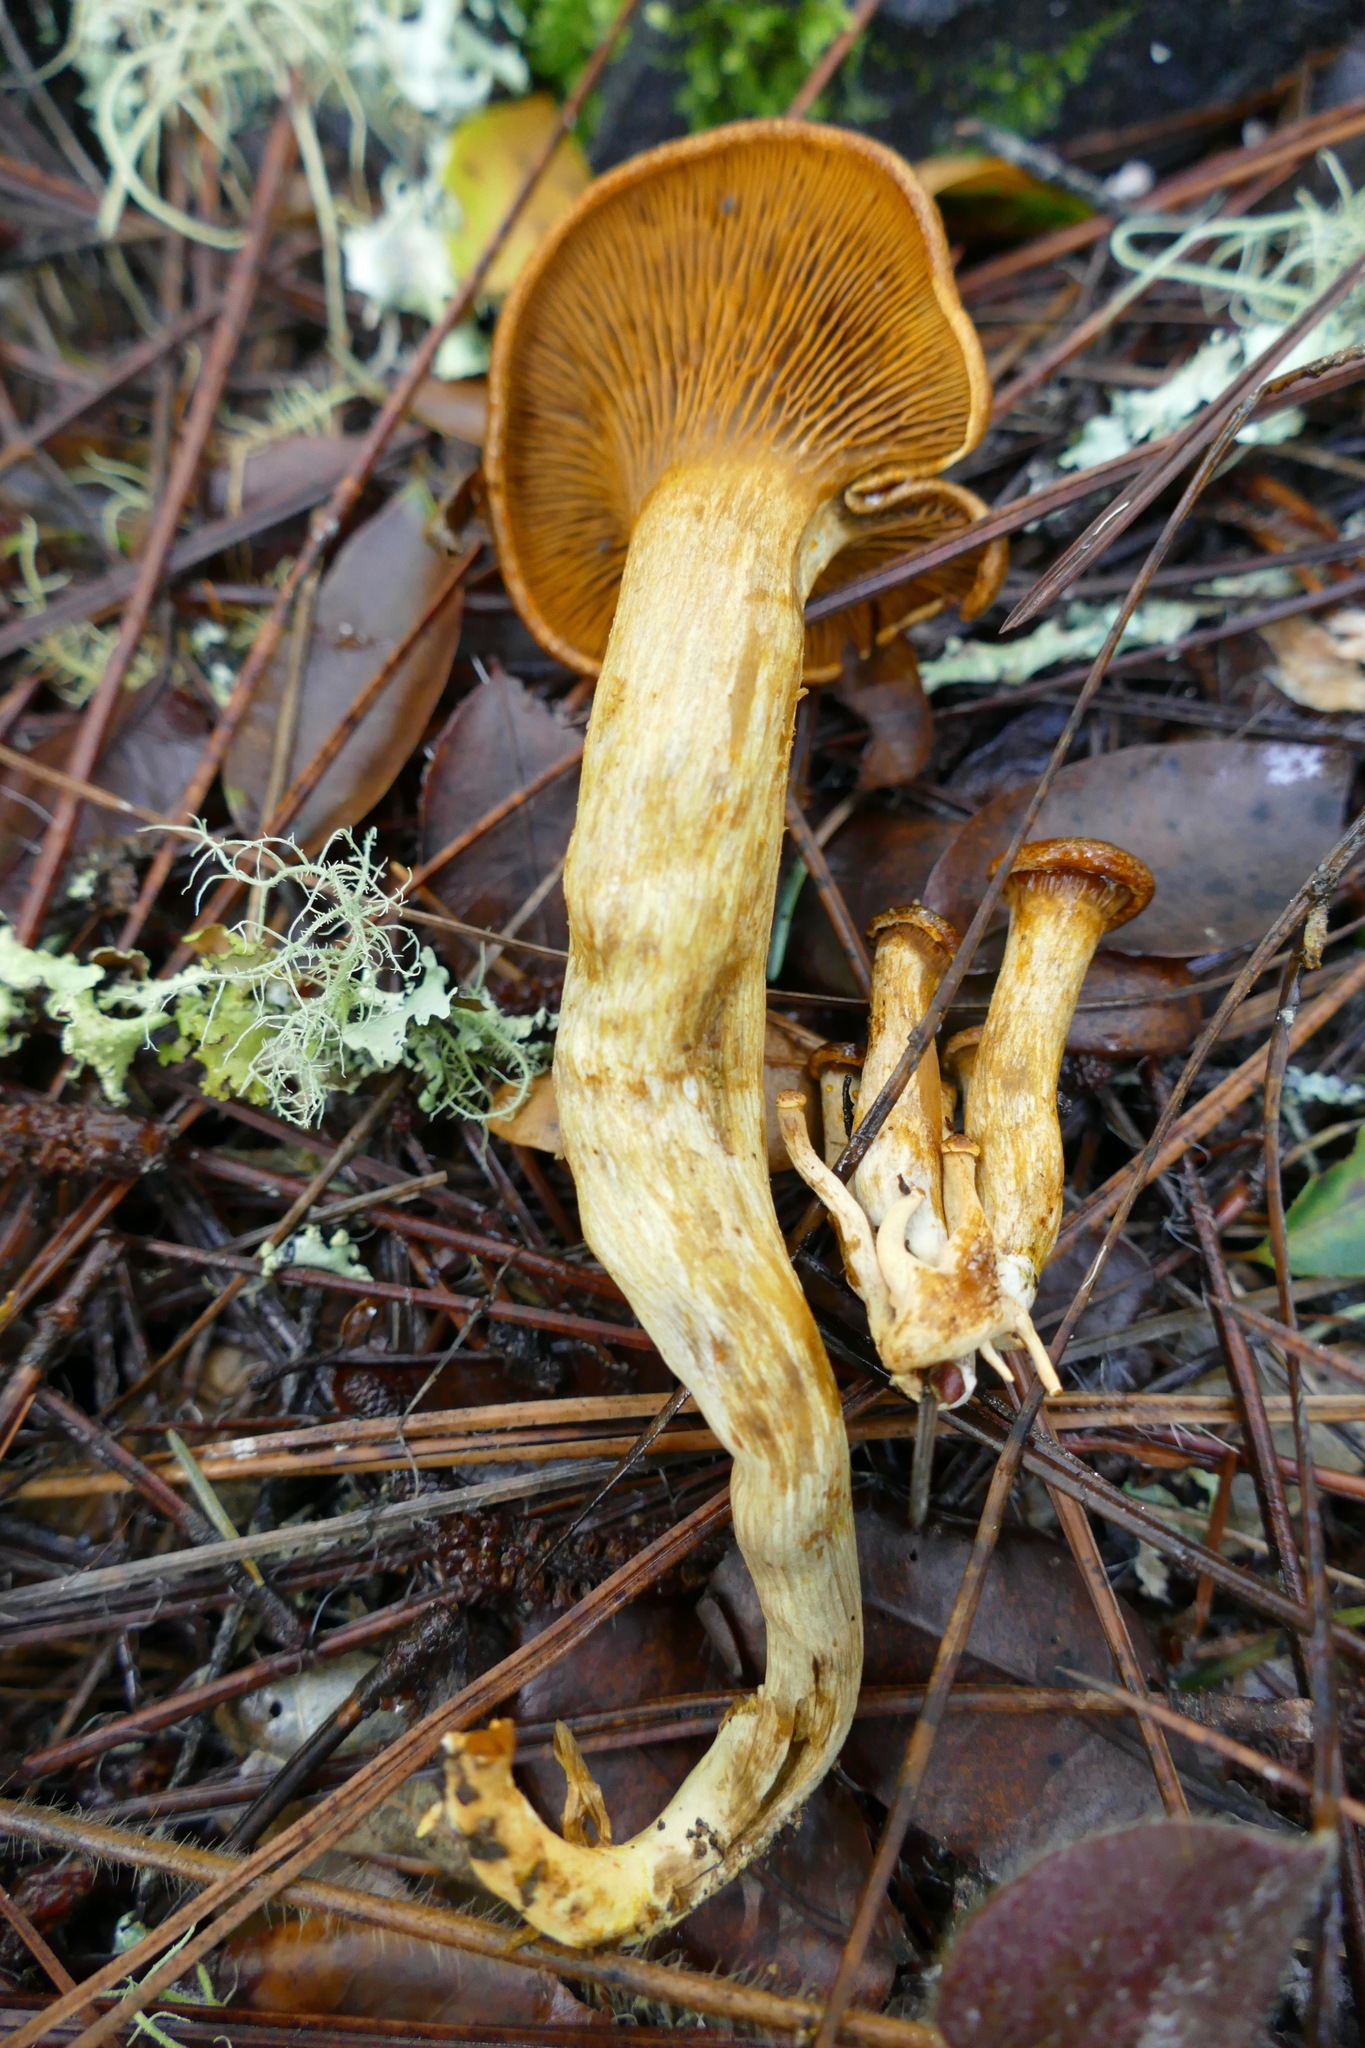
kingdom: Fungi
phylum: Basidiomycota
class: Agaricomycetes
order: Agaricales
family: Omphalotaceae
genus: Omphalotus
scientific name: Omphalotus olivascens
